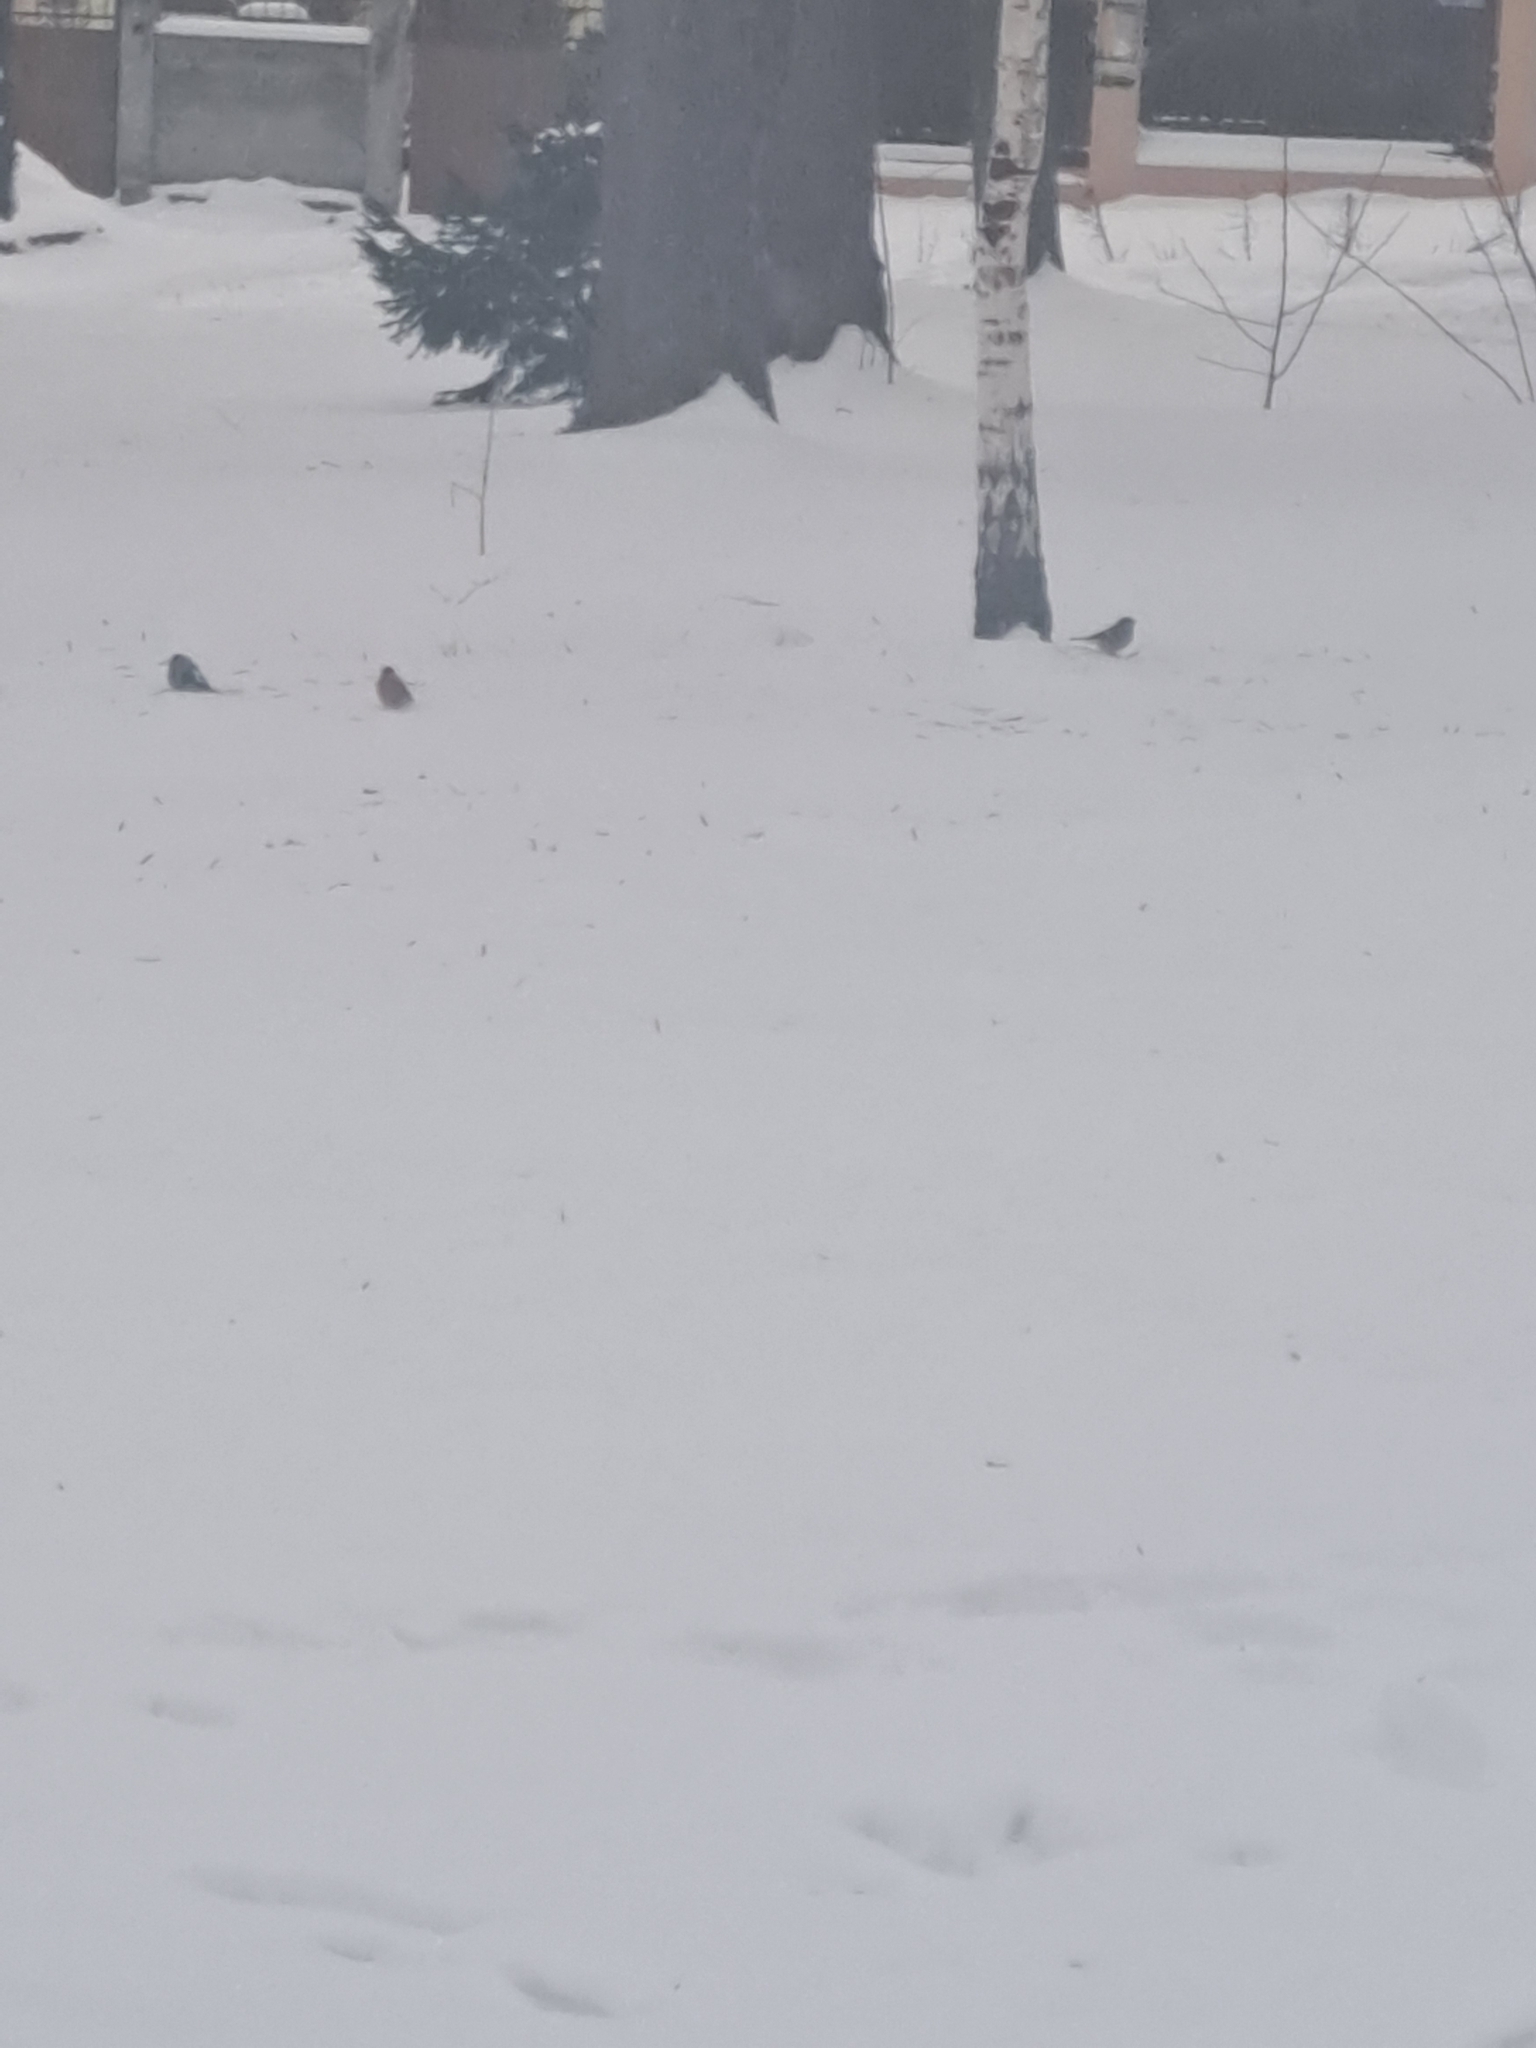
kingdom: Animalia
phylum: Chordata
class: Aves
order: Passeriformes
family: Fringillidae
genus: Pyrrhula
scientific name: Pyrrhula pyrrhula
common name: Eurasian bullfinch
